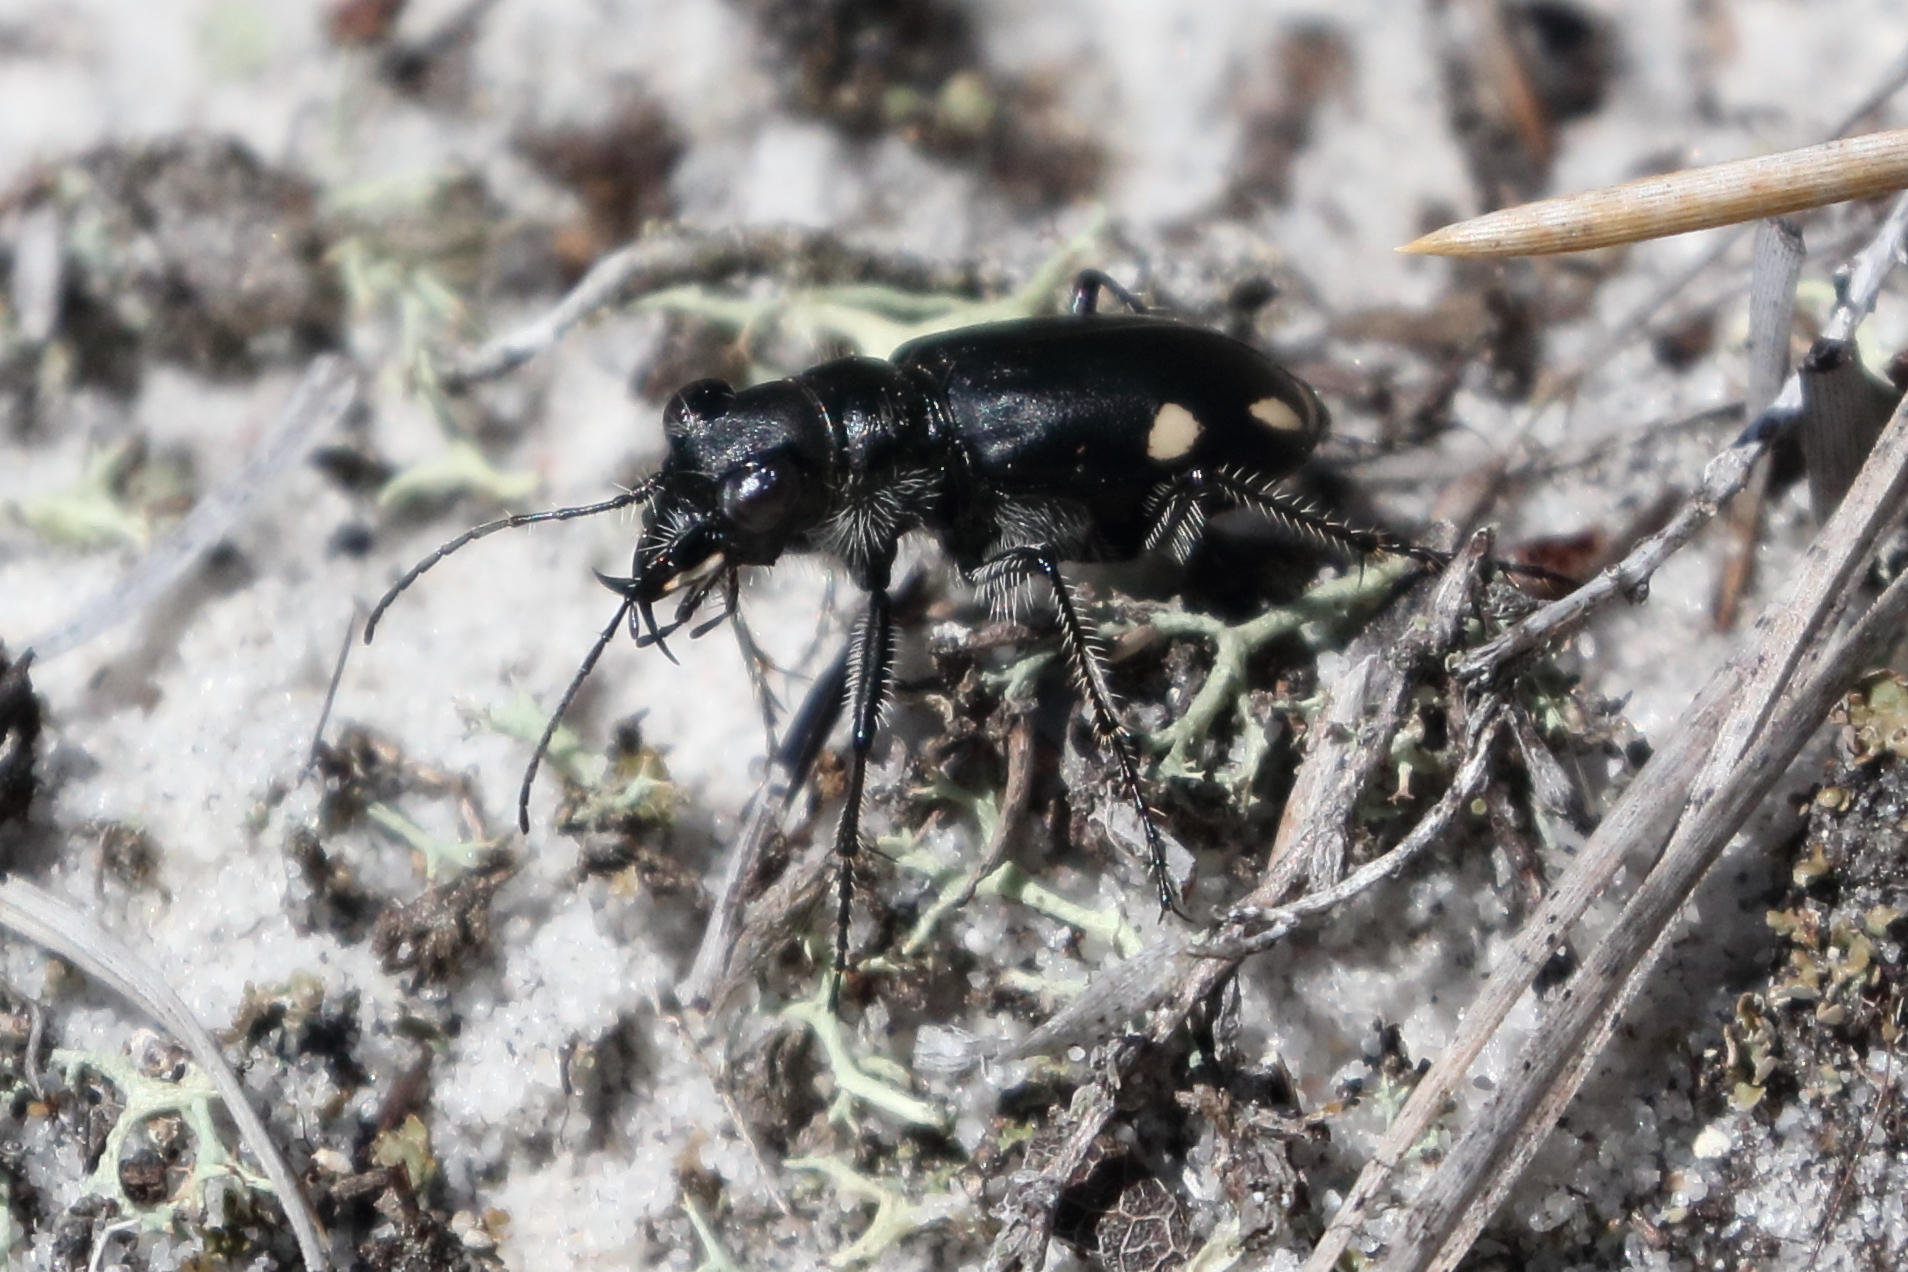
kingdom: Animalia
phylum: Arthropoda
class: Insecta
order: Coleoptera
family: Carabidae
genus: Cicindela
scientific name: Cicindela scutellaris
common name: Festive tiger beetle
